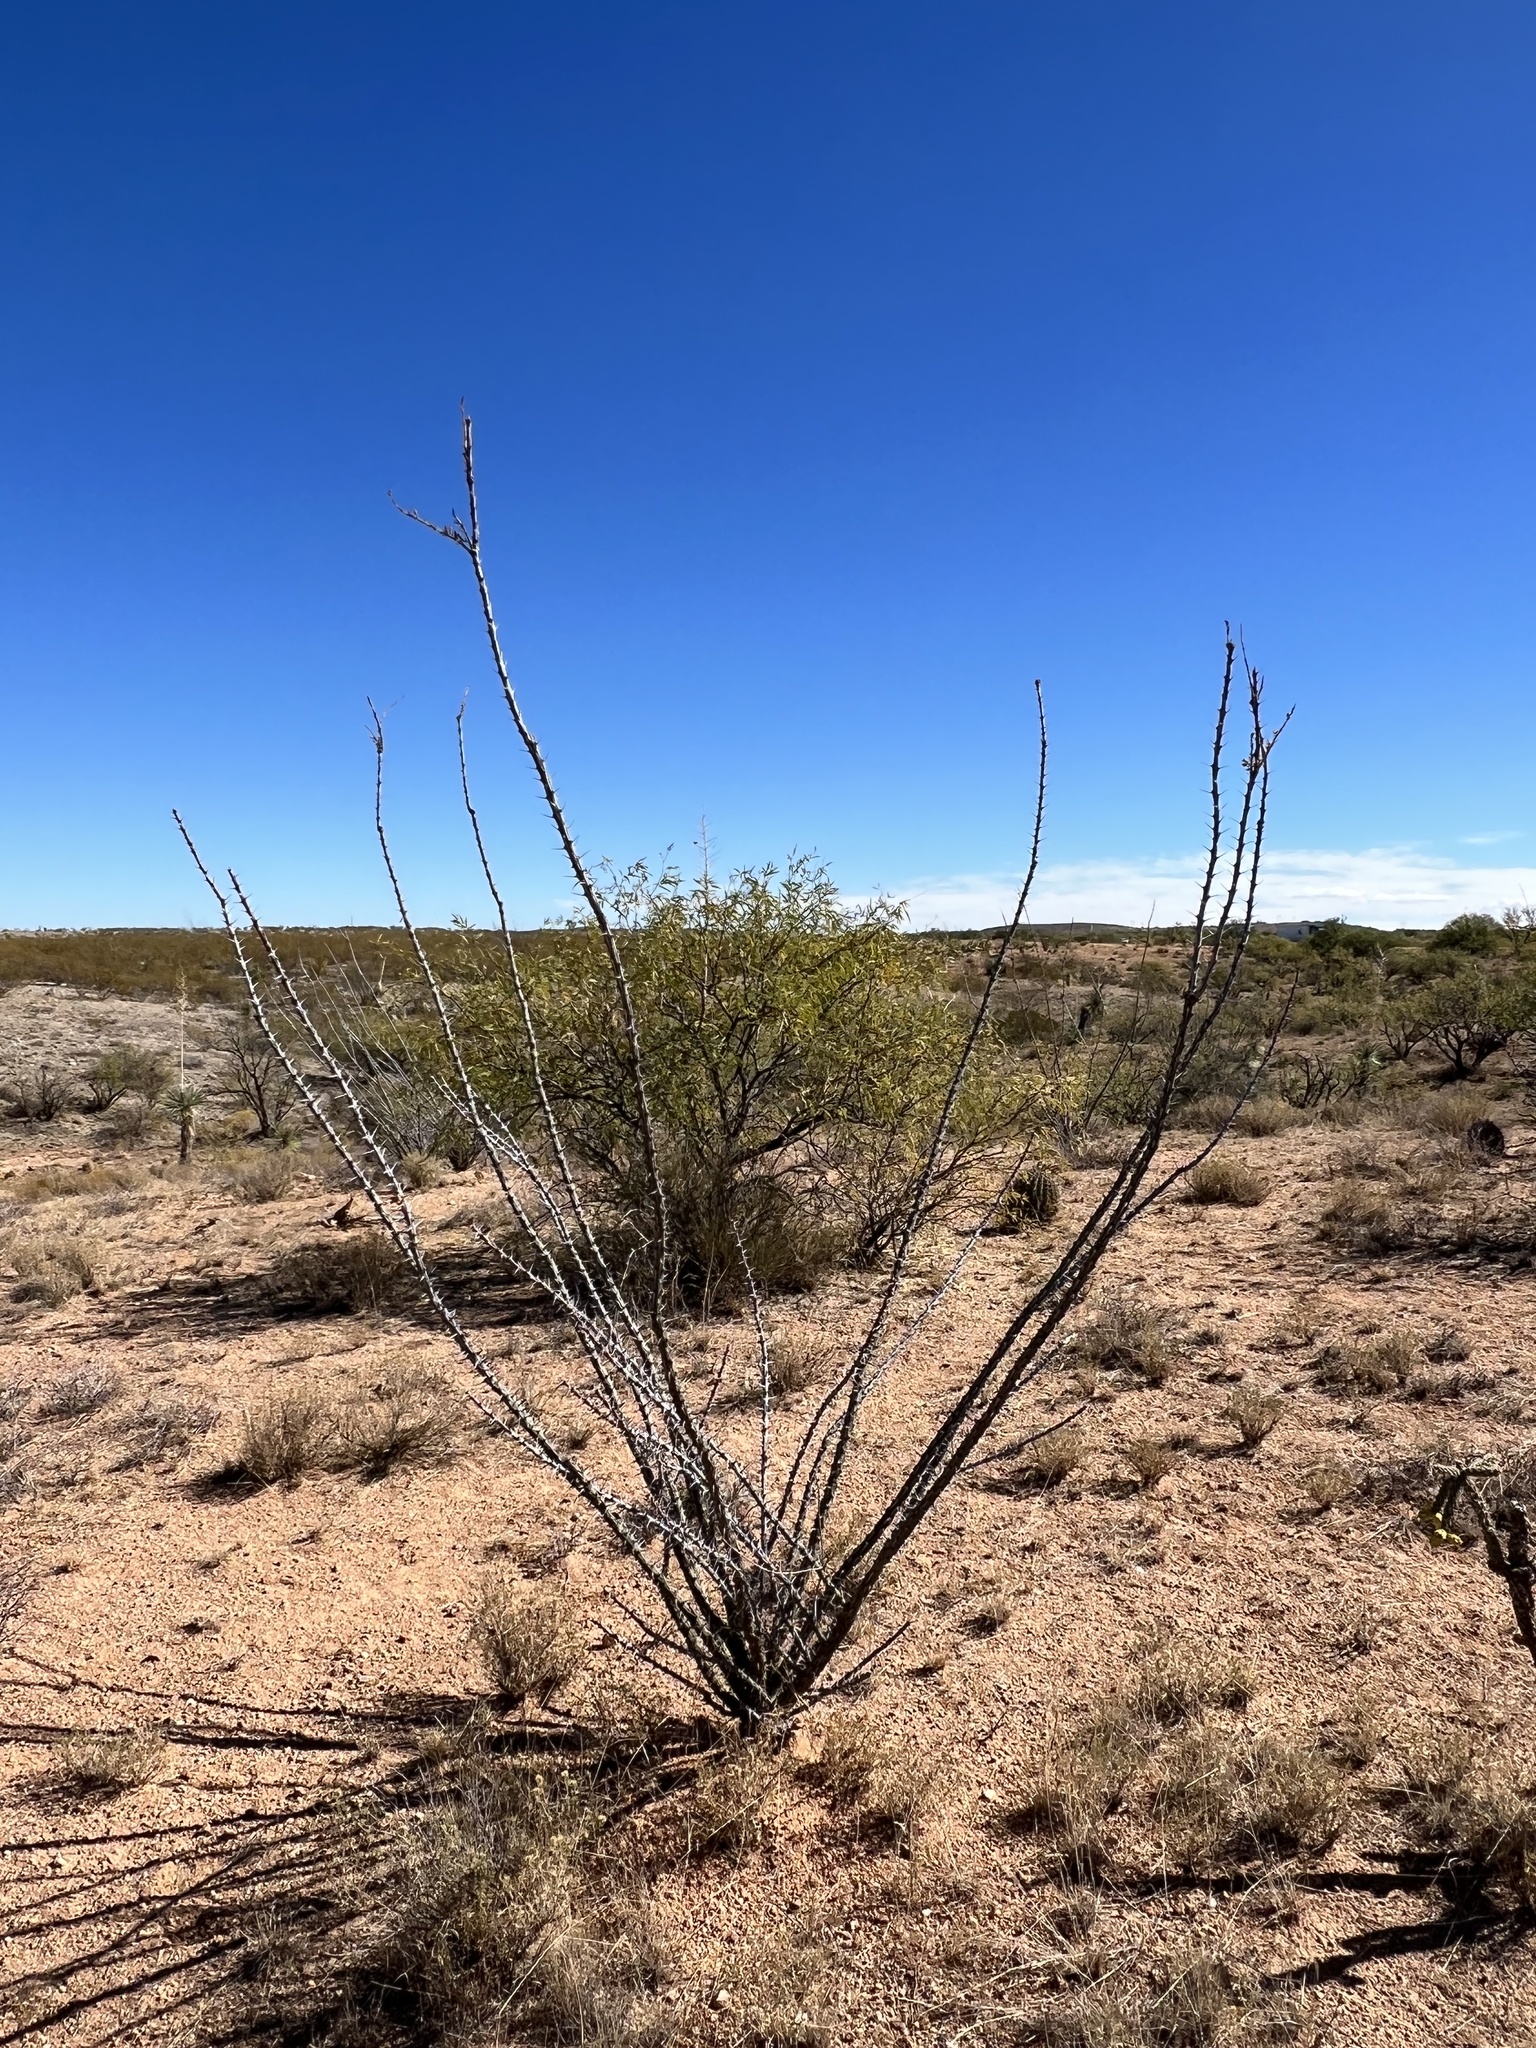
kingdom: Plantae
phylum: Tracheophyta
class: Magnoliopsida
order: Ericales
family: Fouquieriaceae
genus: Fouquieria
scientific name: Fouquieria splendens
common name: Vine-cactus
